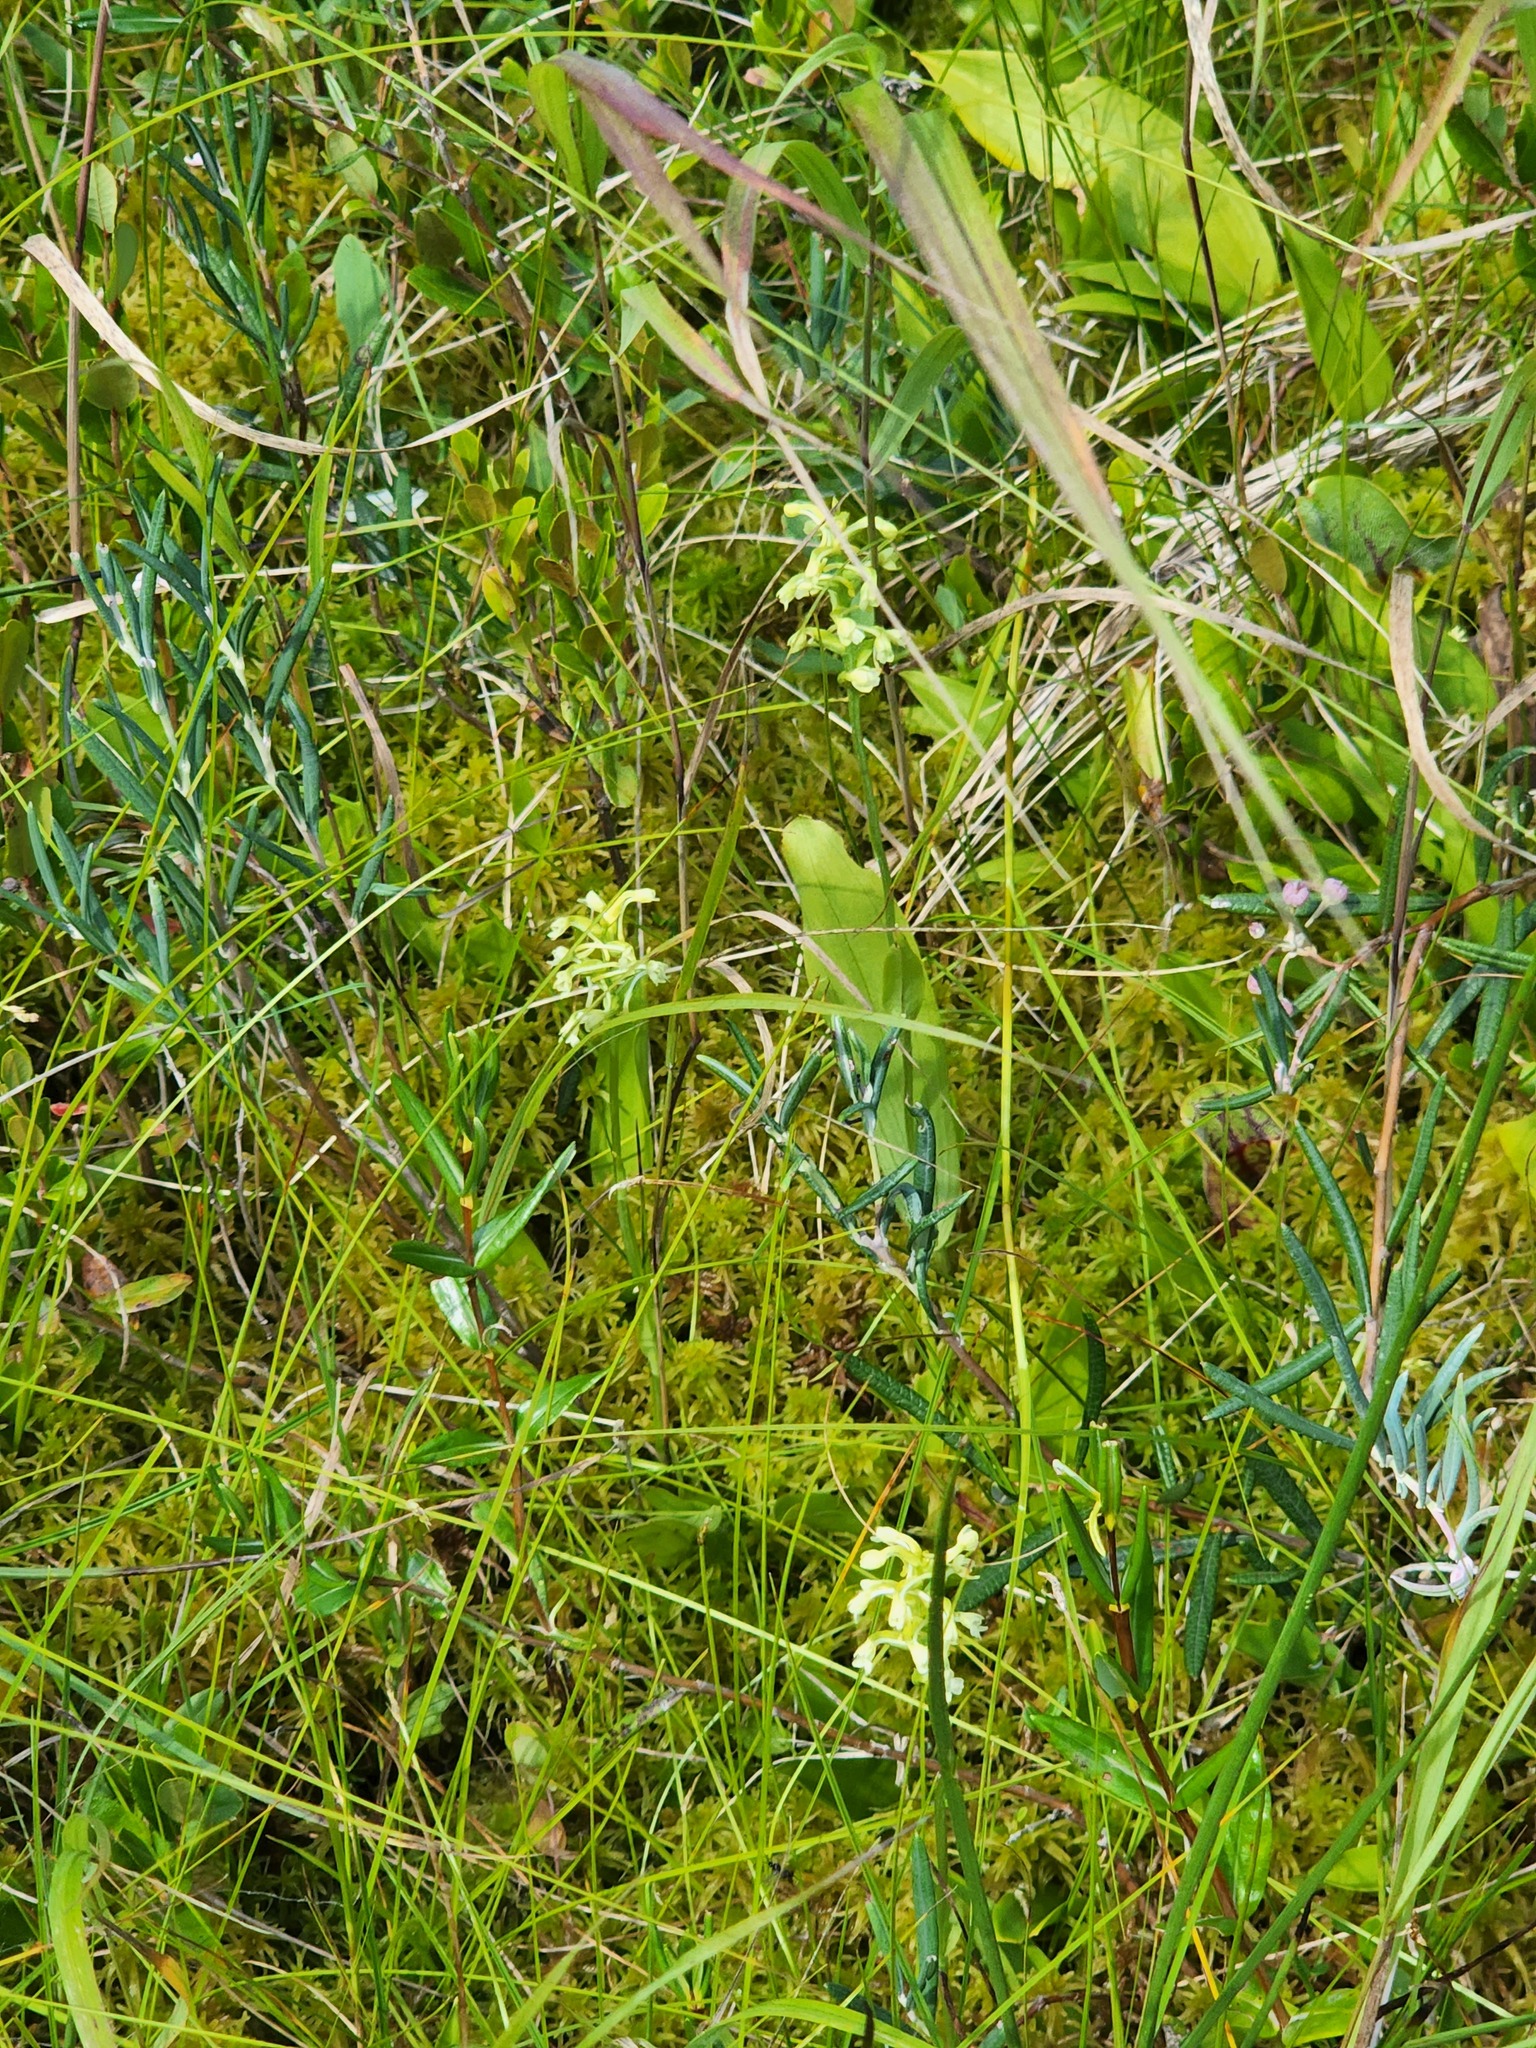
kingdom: Plantae
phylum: Tracheophyta
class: Liliopsida
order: Asparagales
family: Orchidaceae
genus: Platanthera
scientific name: Platanthera clavellata
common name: Club-spur orchid
